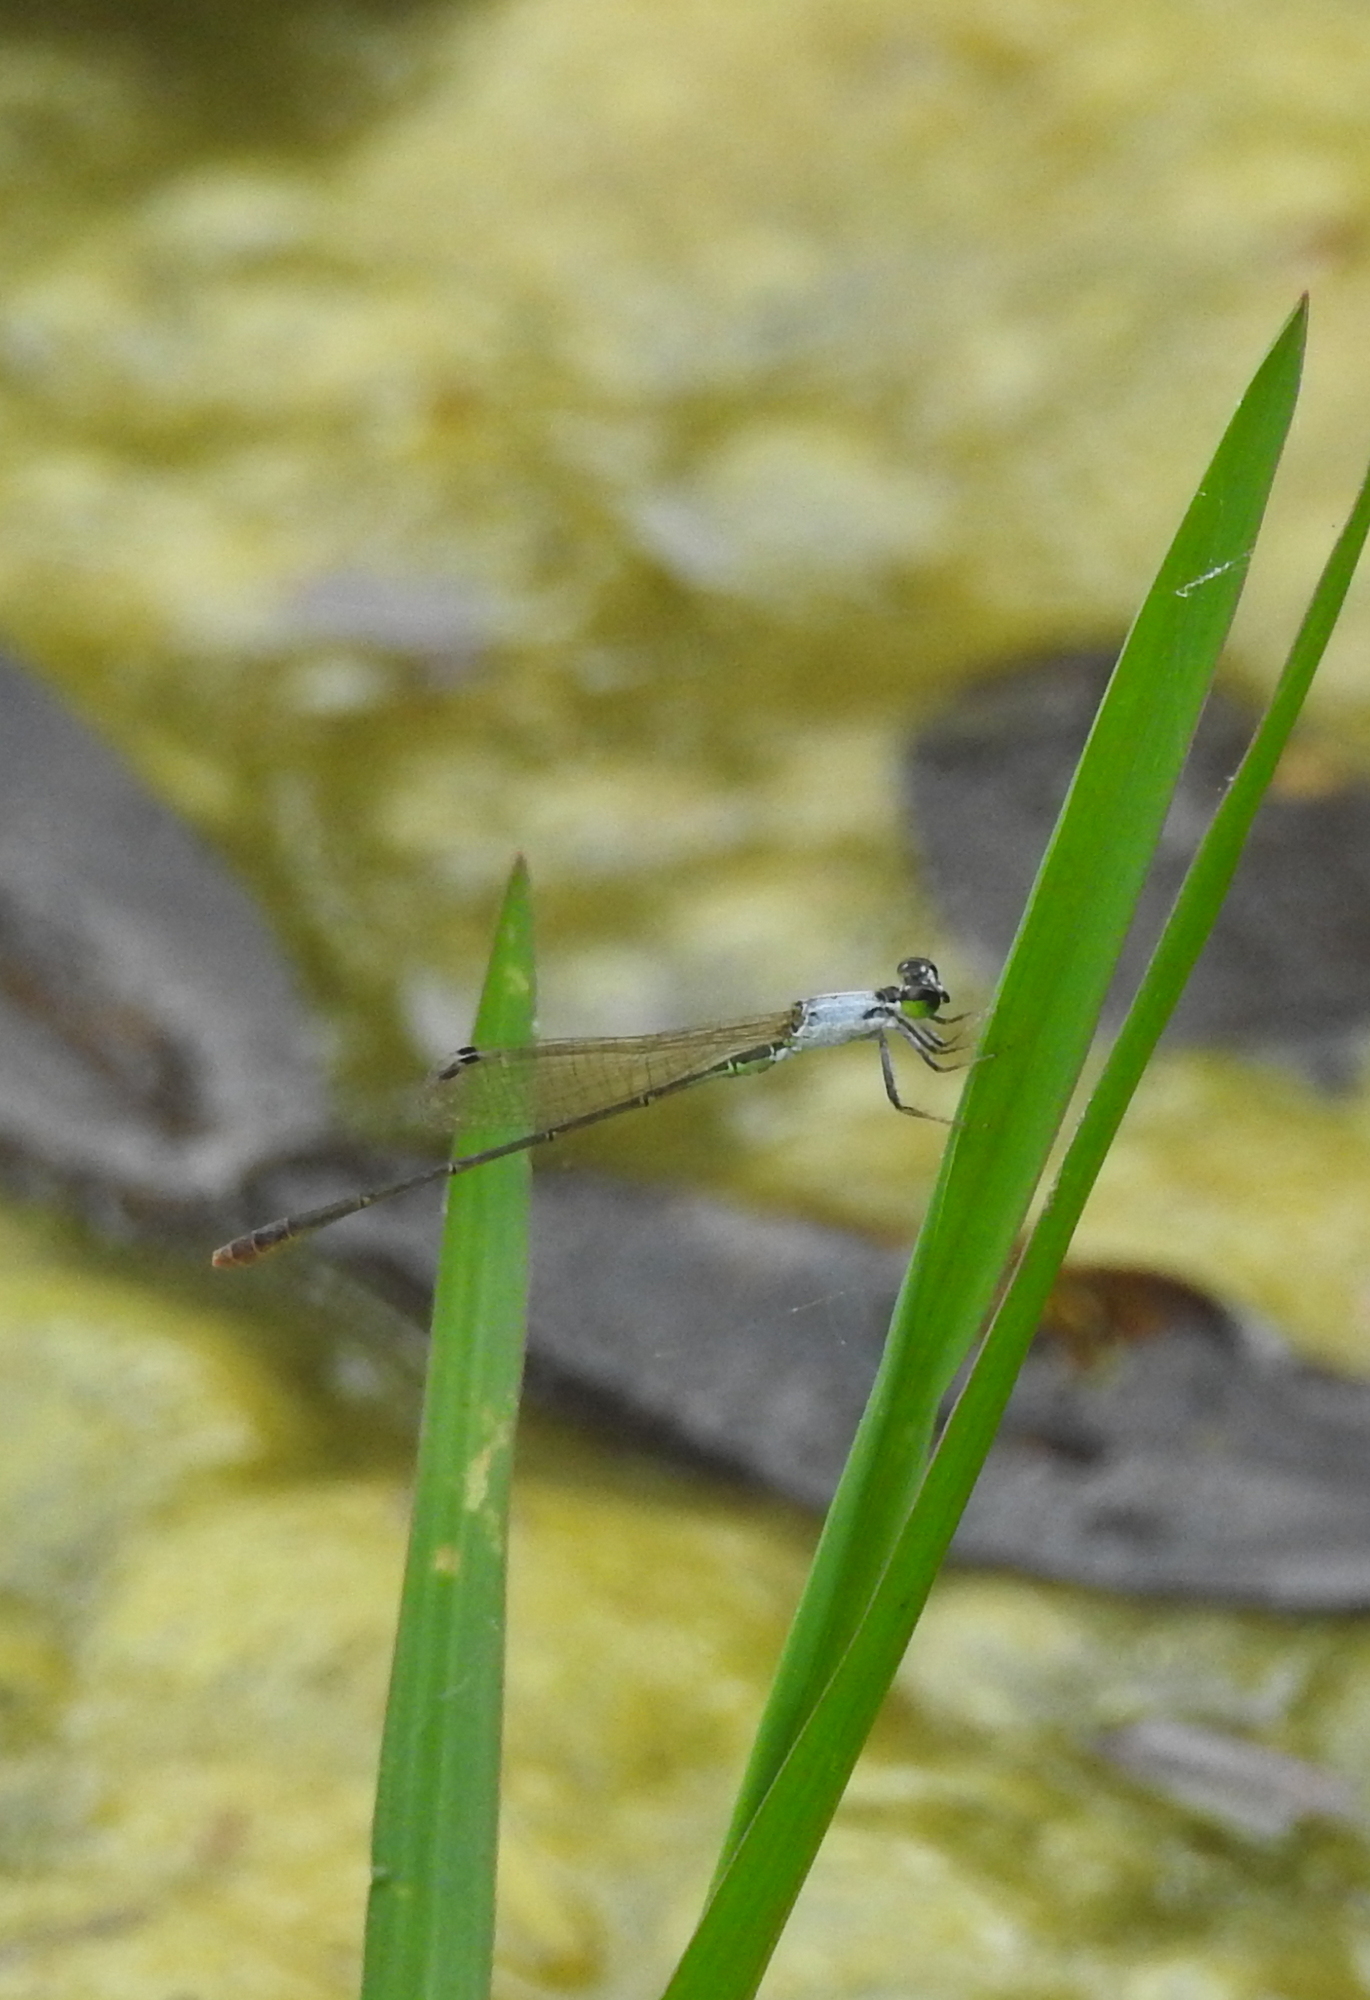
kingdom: Animalia
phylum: Arthropoda
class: Insecta
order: Odonata
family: Coenagrionidae
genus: Agriocnemis
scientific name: Agriocnemis pygmaea
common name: Pygmy wisp
